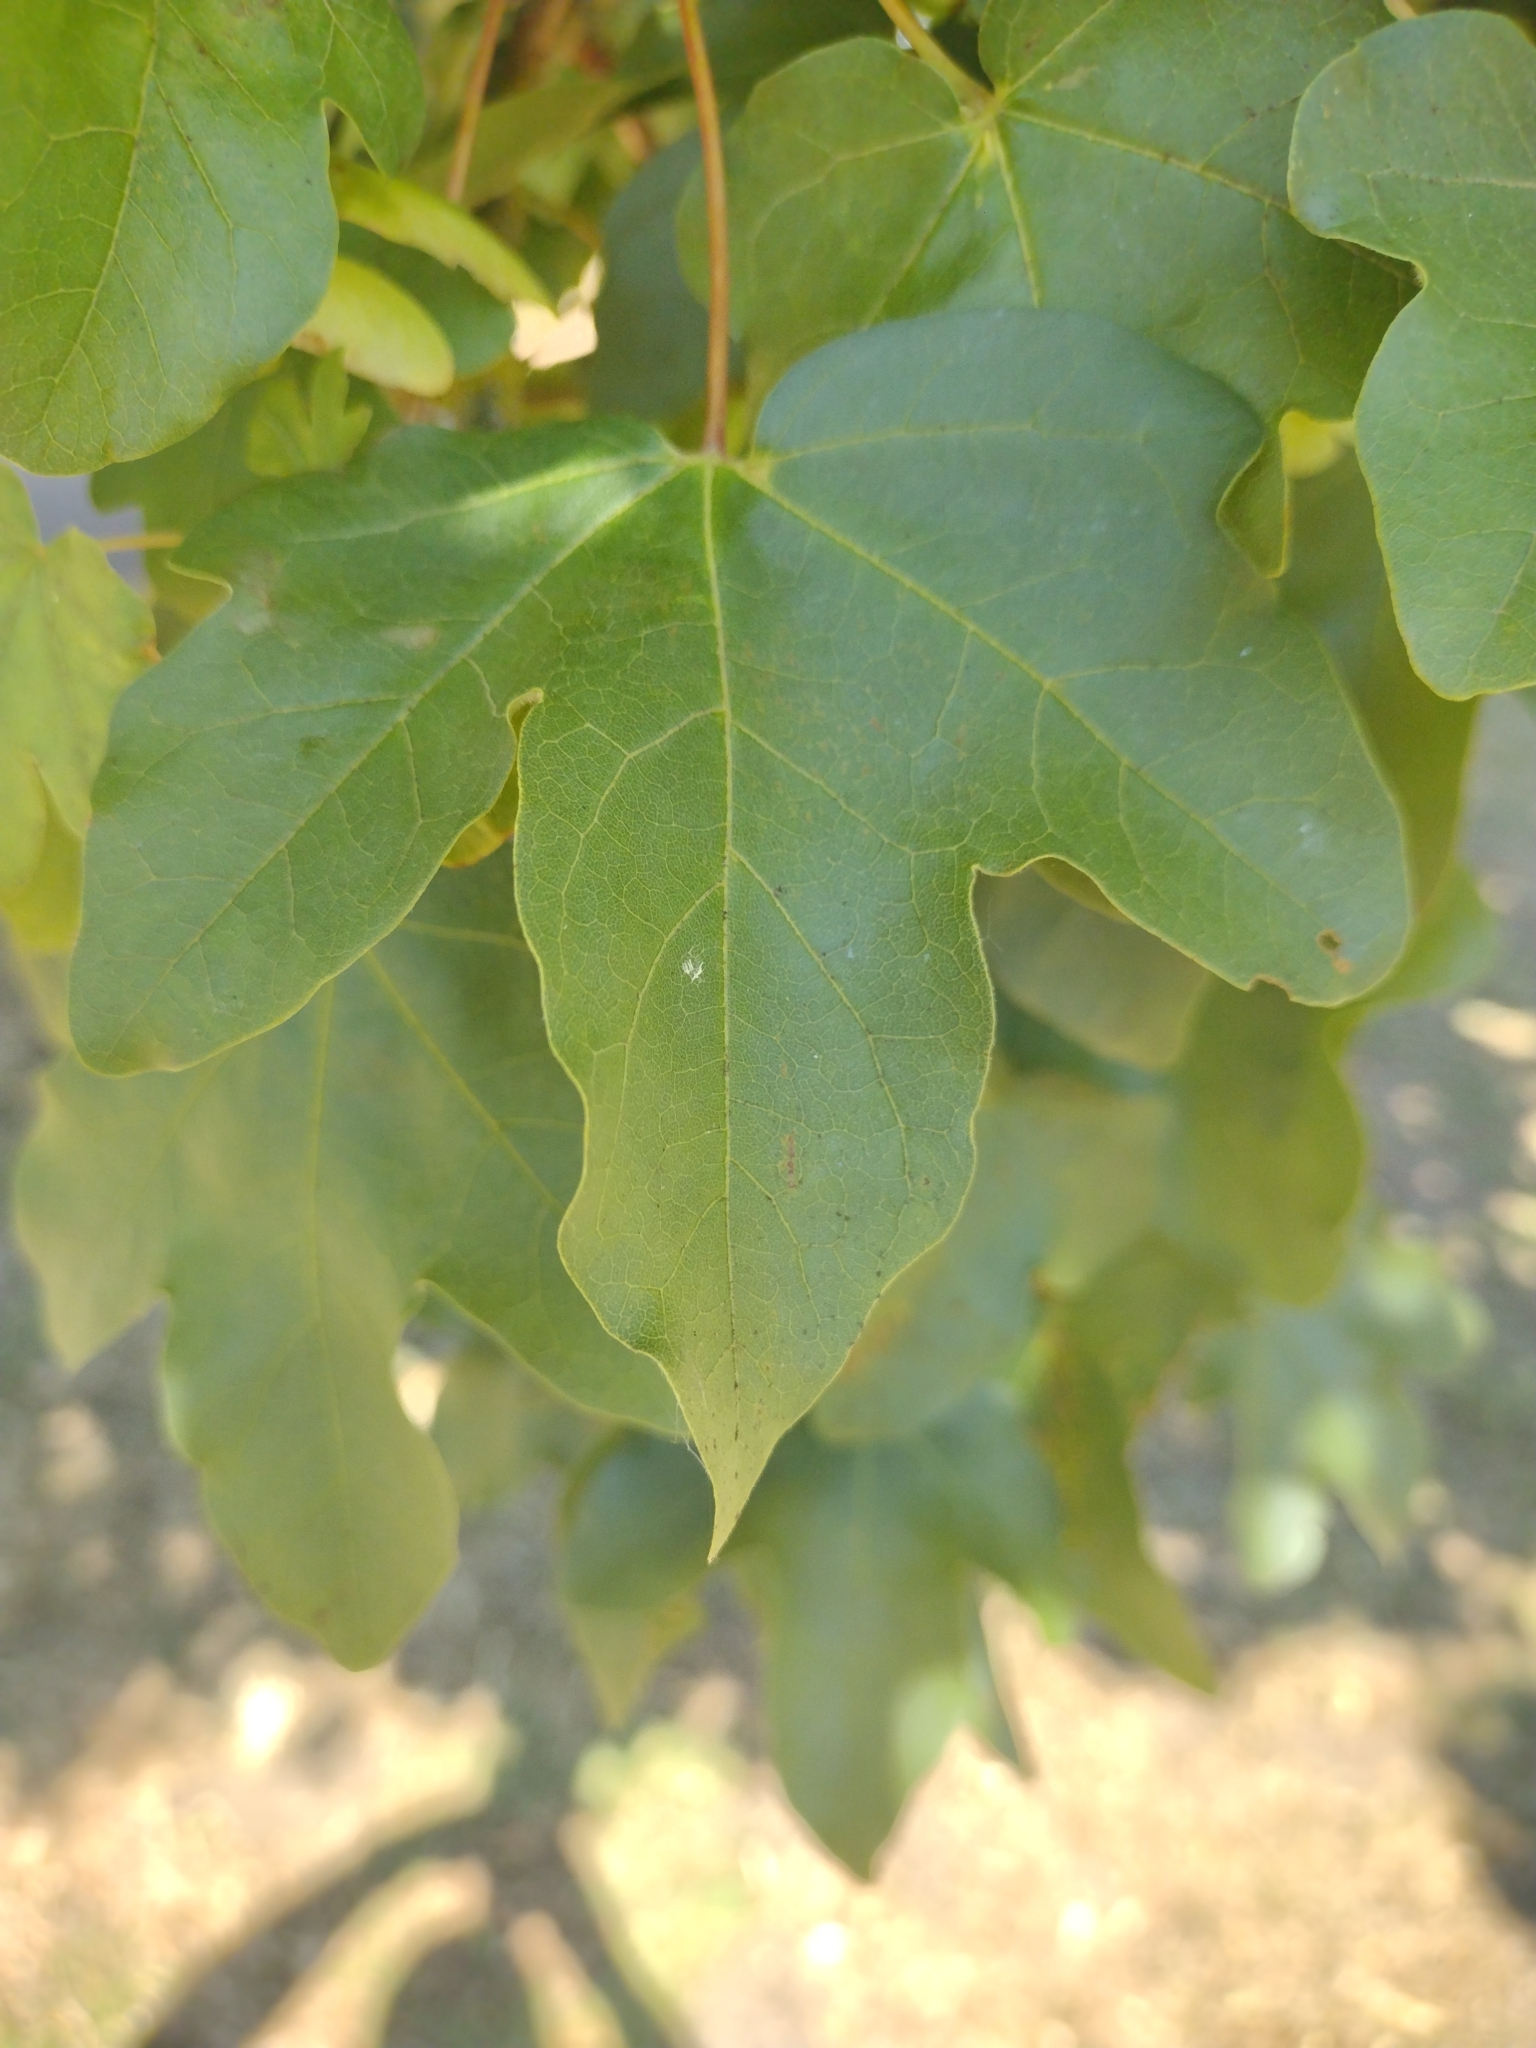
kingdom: Plantae
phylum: Tracheophyta
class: Magnoliopsida
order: Sapindales
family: Sapindaceae
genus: Acer
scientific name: Acer campestre
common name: Field maple
